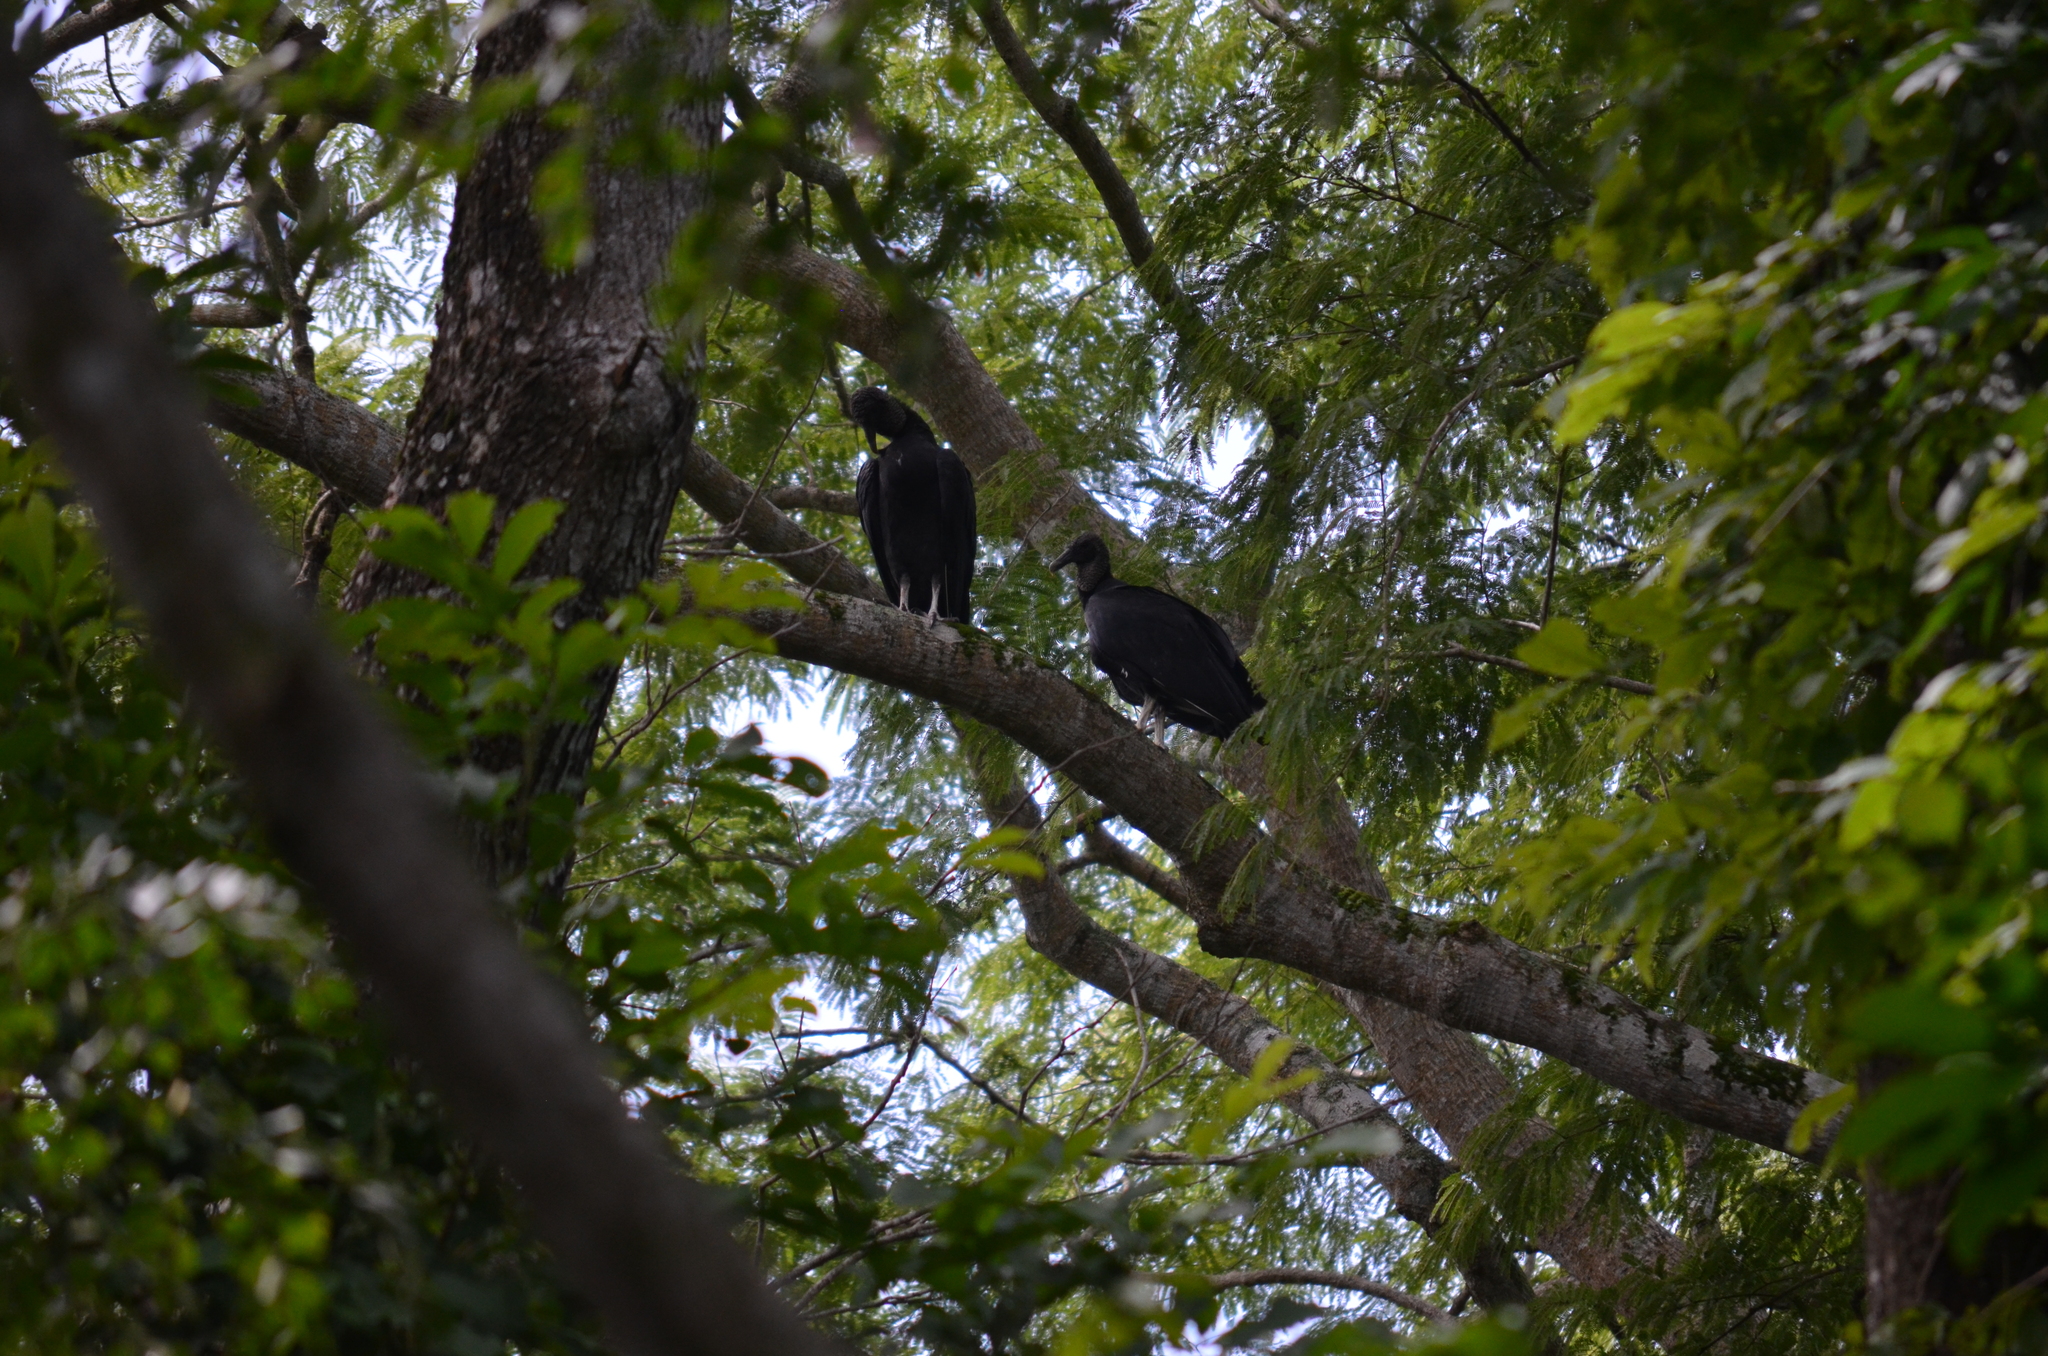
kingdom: Animalia
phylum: Chordata
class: Aves
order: Accipitriformes
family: Cathartidae
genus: Coragyps
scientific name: Coragyps atratus
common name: Black vulture
